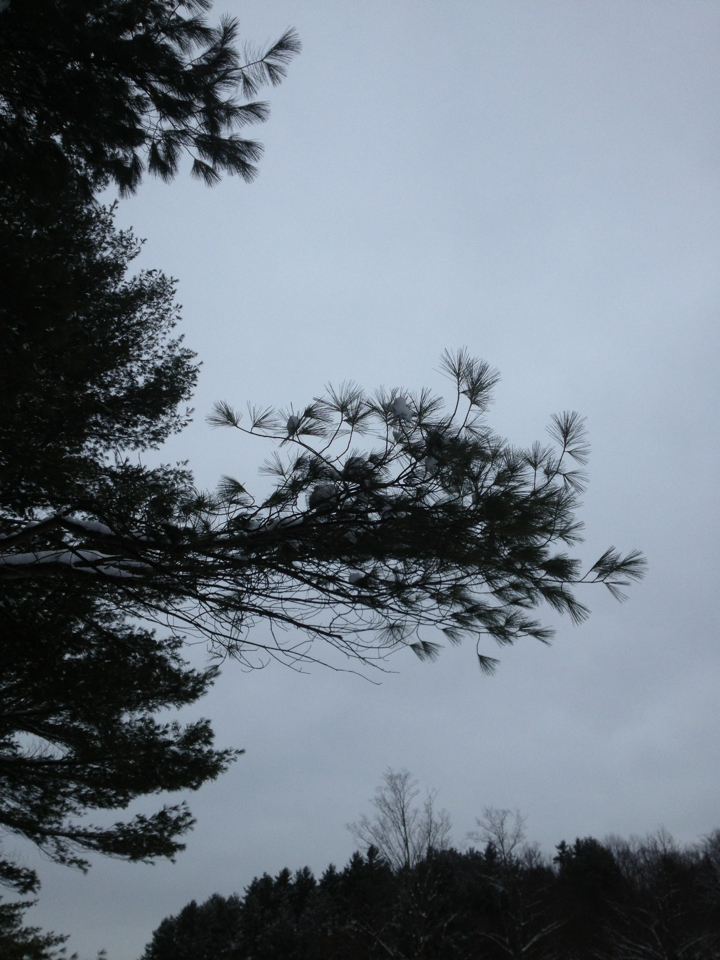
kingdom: Plantae
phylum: Tracheophyta
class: Pinopsida
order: Pinales
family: Pinaceae
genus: Pinus
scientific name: Pinus strobus
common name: Weymouth pine
